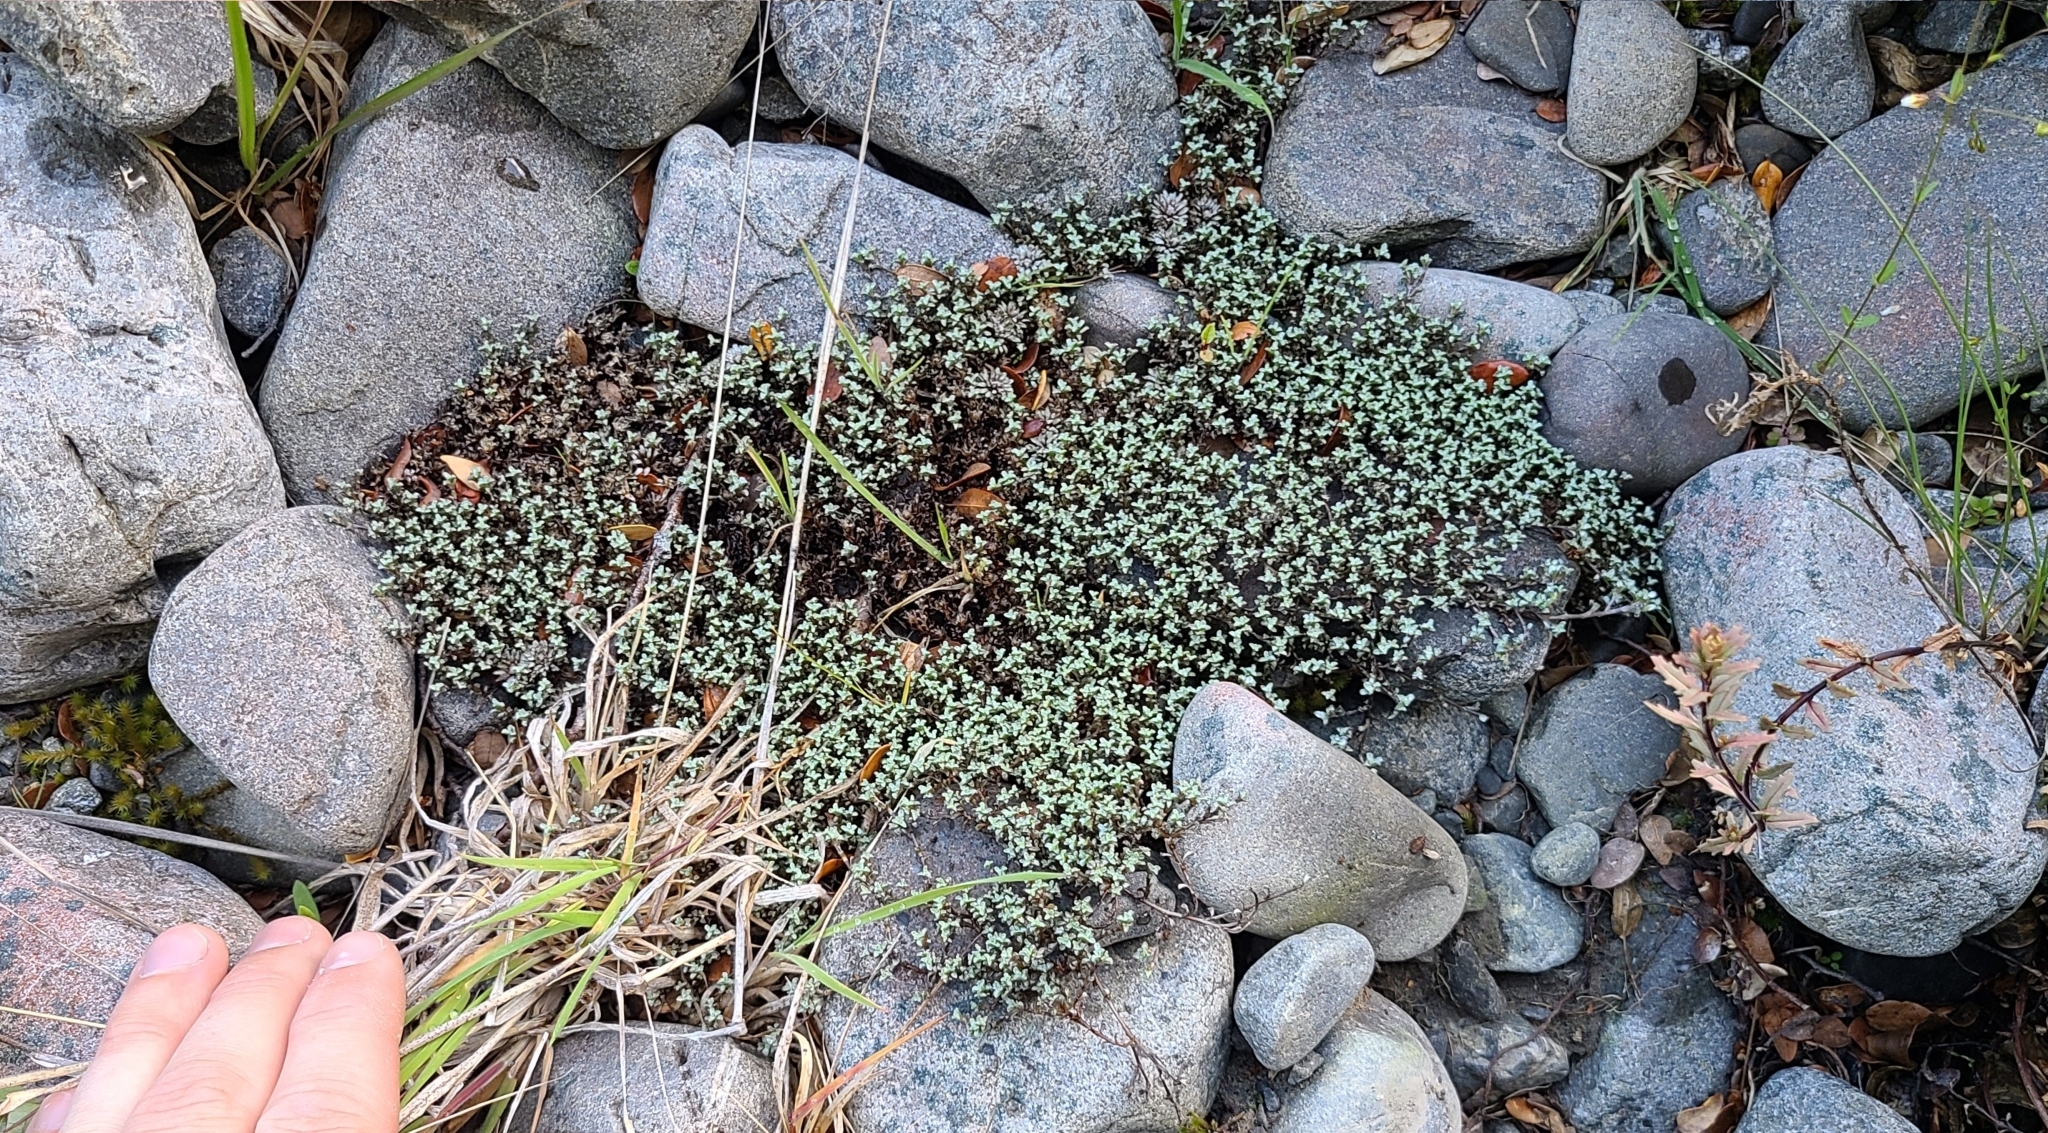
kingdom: Plantae
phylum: Tracheophyta
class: Magnoliopsida
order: Asterales
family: Asteraceae
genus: Raoulia
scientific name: Raoulia tenuicaulis
